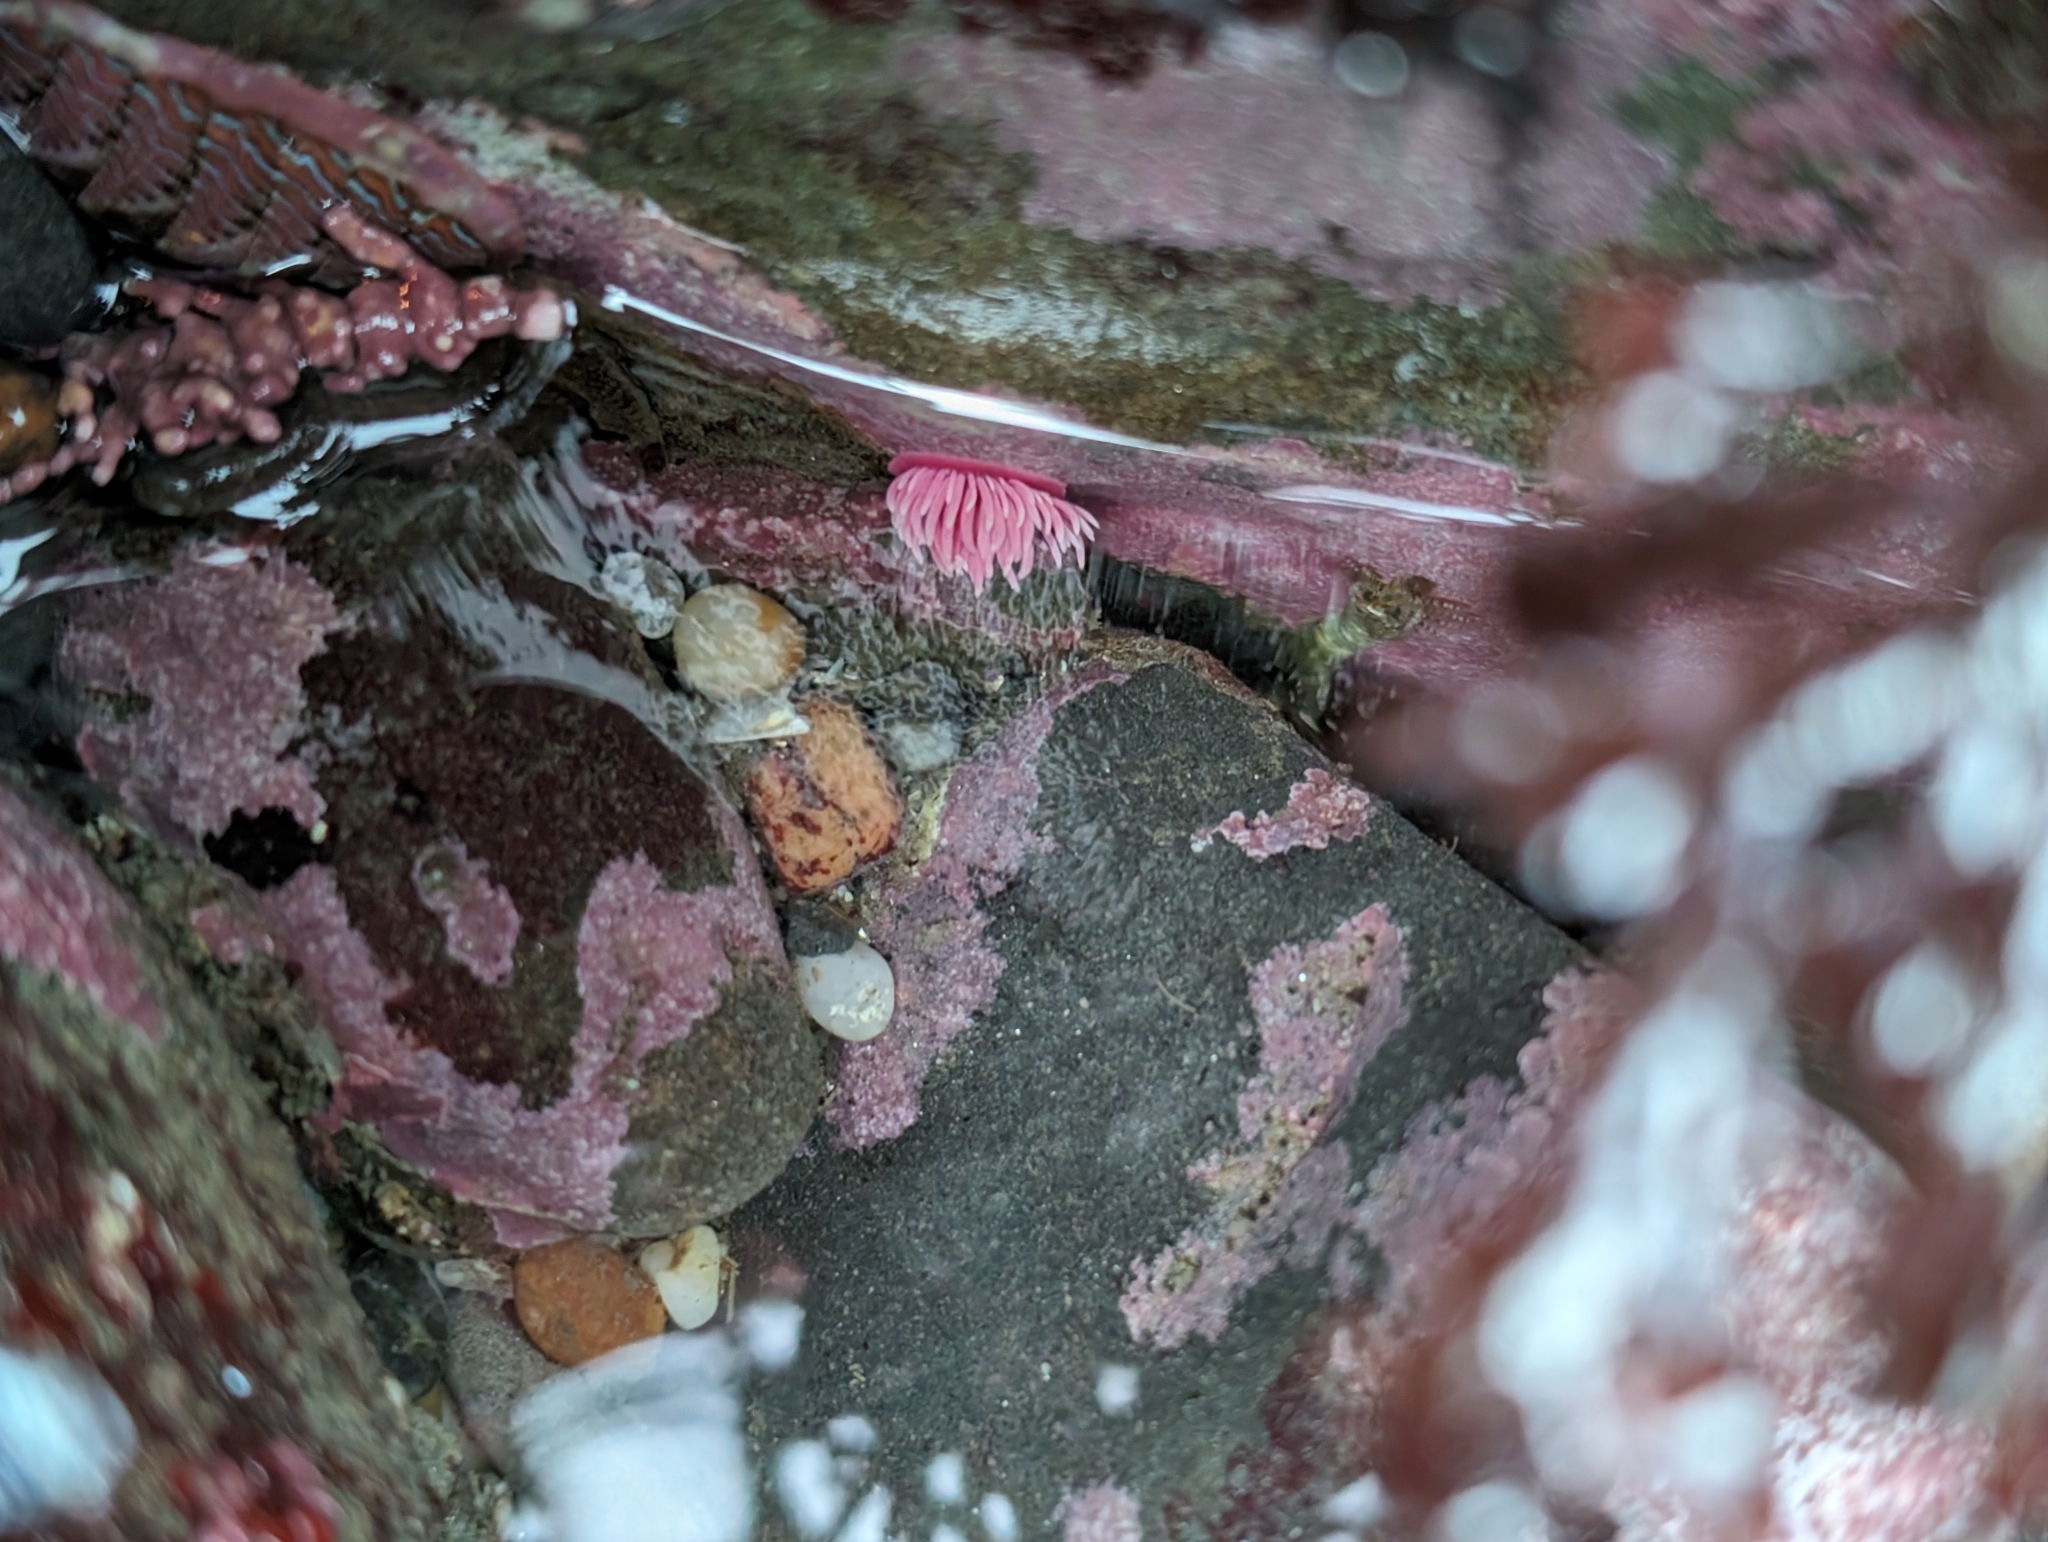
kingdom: Animalia
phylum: Mollusca
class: Gastropoda
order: Nudibranchia
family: Goniodorididae
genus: Okenia
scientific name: Okenia
